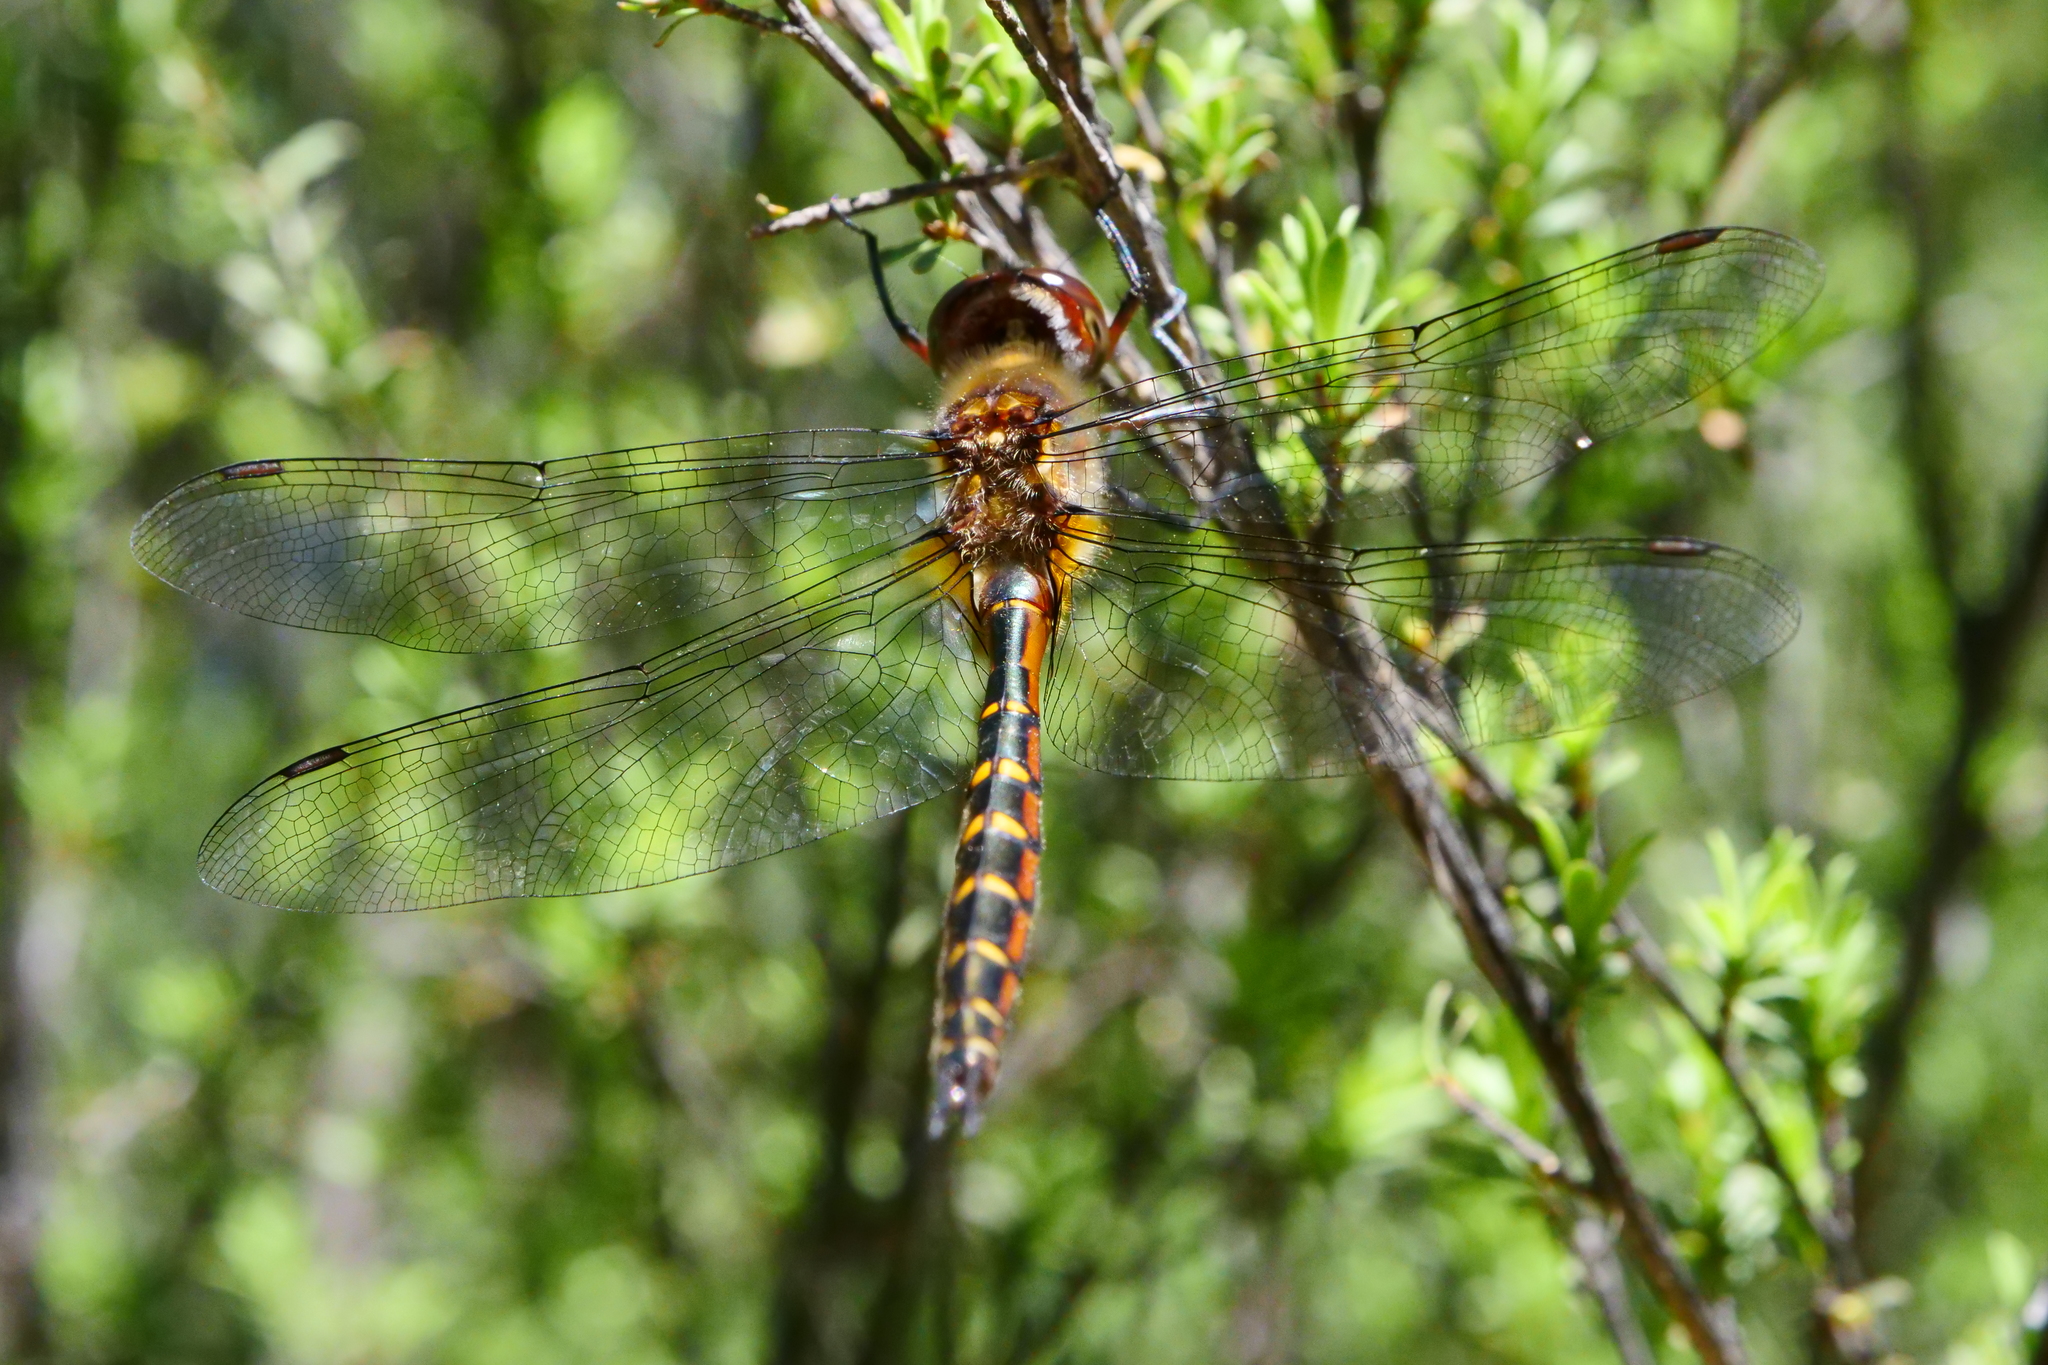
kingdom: Animalia
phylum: Arthropoda
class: Insecta
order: Odonata
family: Corduliidae
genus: Procordulia
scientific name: Procordulia smithii
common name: Ranger dragonfly
